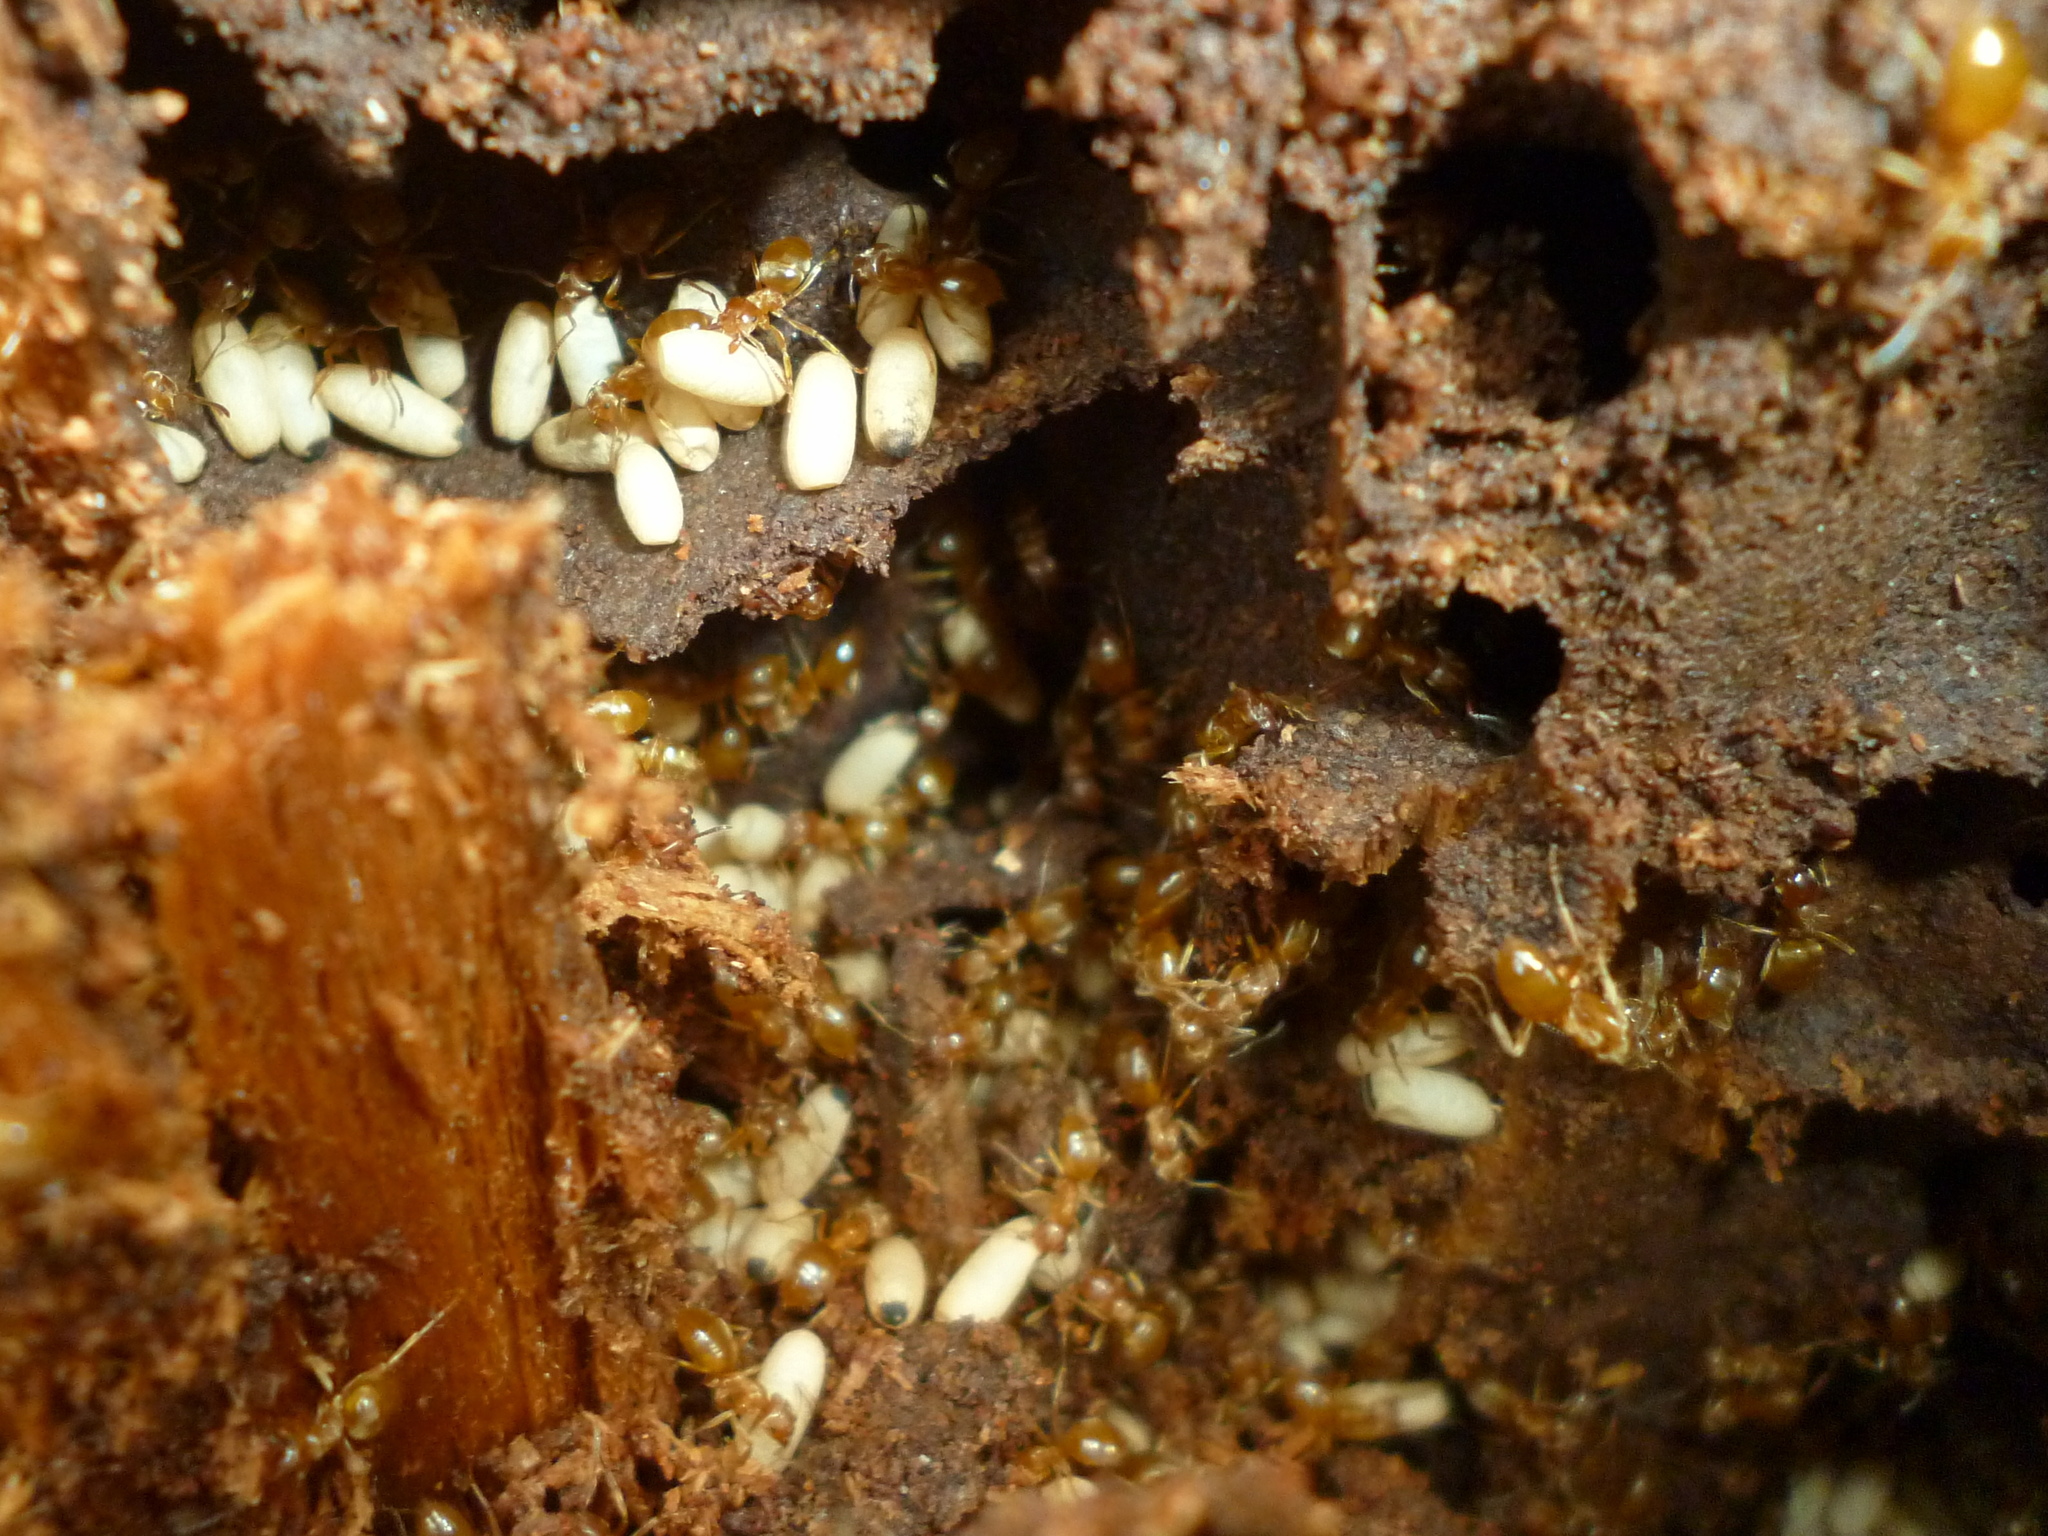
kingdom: Animalia
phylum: Arthropoda
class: Insecta
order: Hymenoptera
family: Formicidae
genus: Lasius
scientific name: Lasius aphidicola
